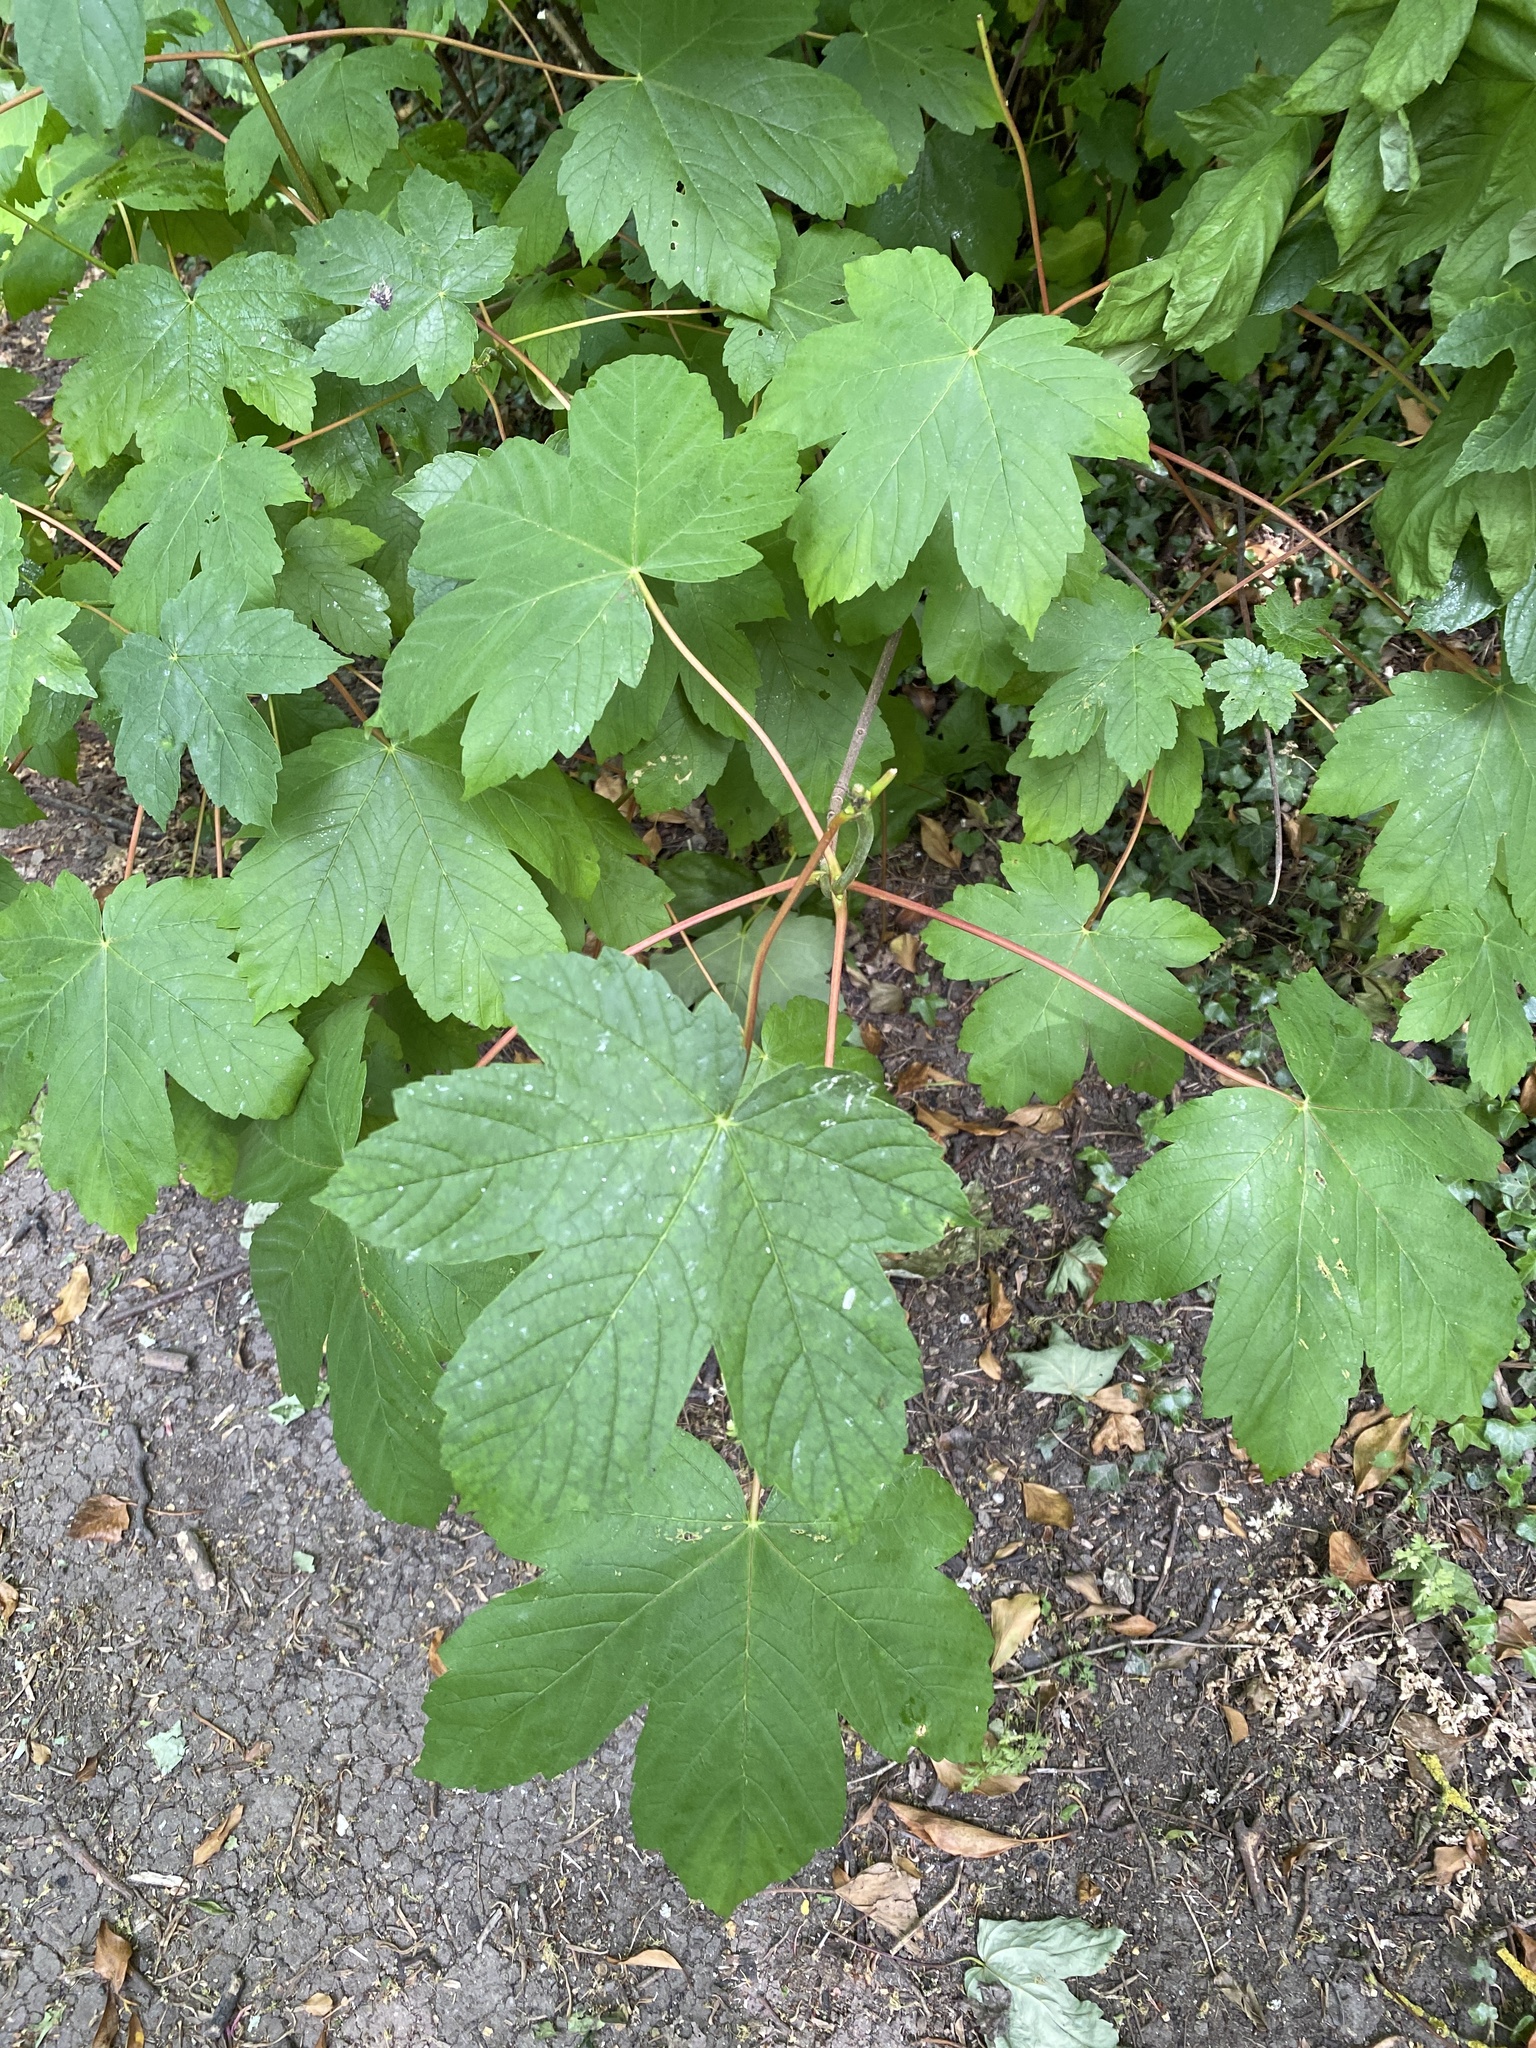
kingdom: Plantae
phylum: Tracheophyta
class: Magnoliopsida
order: Sapindales
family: Sapindaceae
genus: Acer
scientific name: Acer pseudoplatanus
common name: Sycamore
